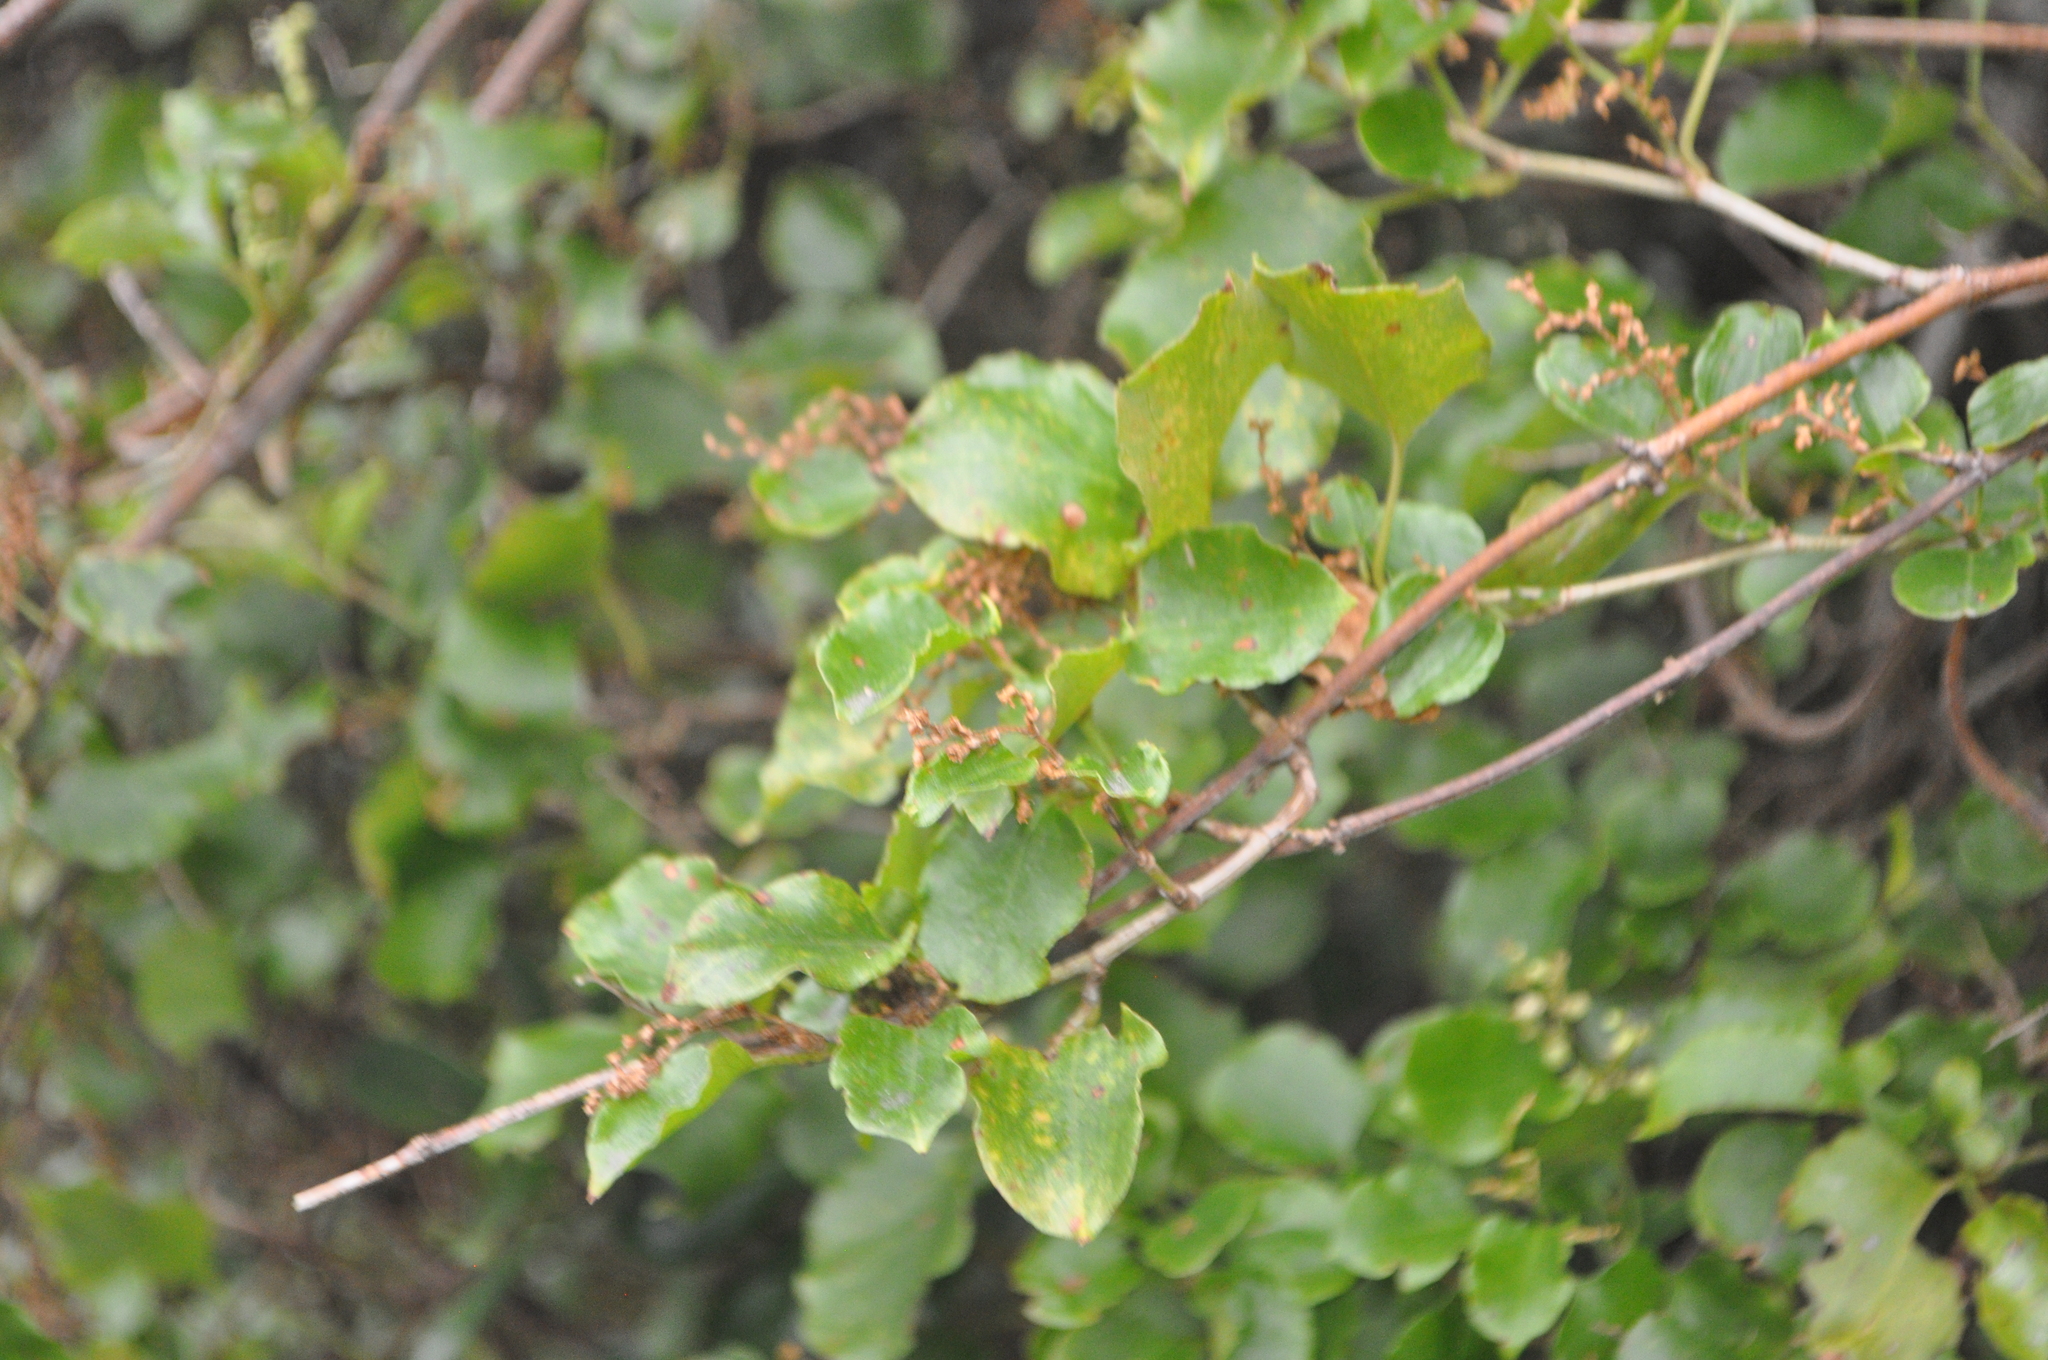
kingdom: Plantae
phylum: Tracheophyta
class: Magnoliopsida
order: Caryophyllales
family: Polygonaceae
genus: Muehlenbeckia
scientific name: Muehlenbeckia australis
